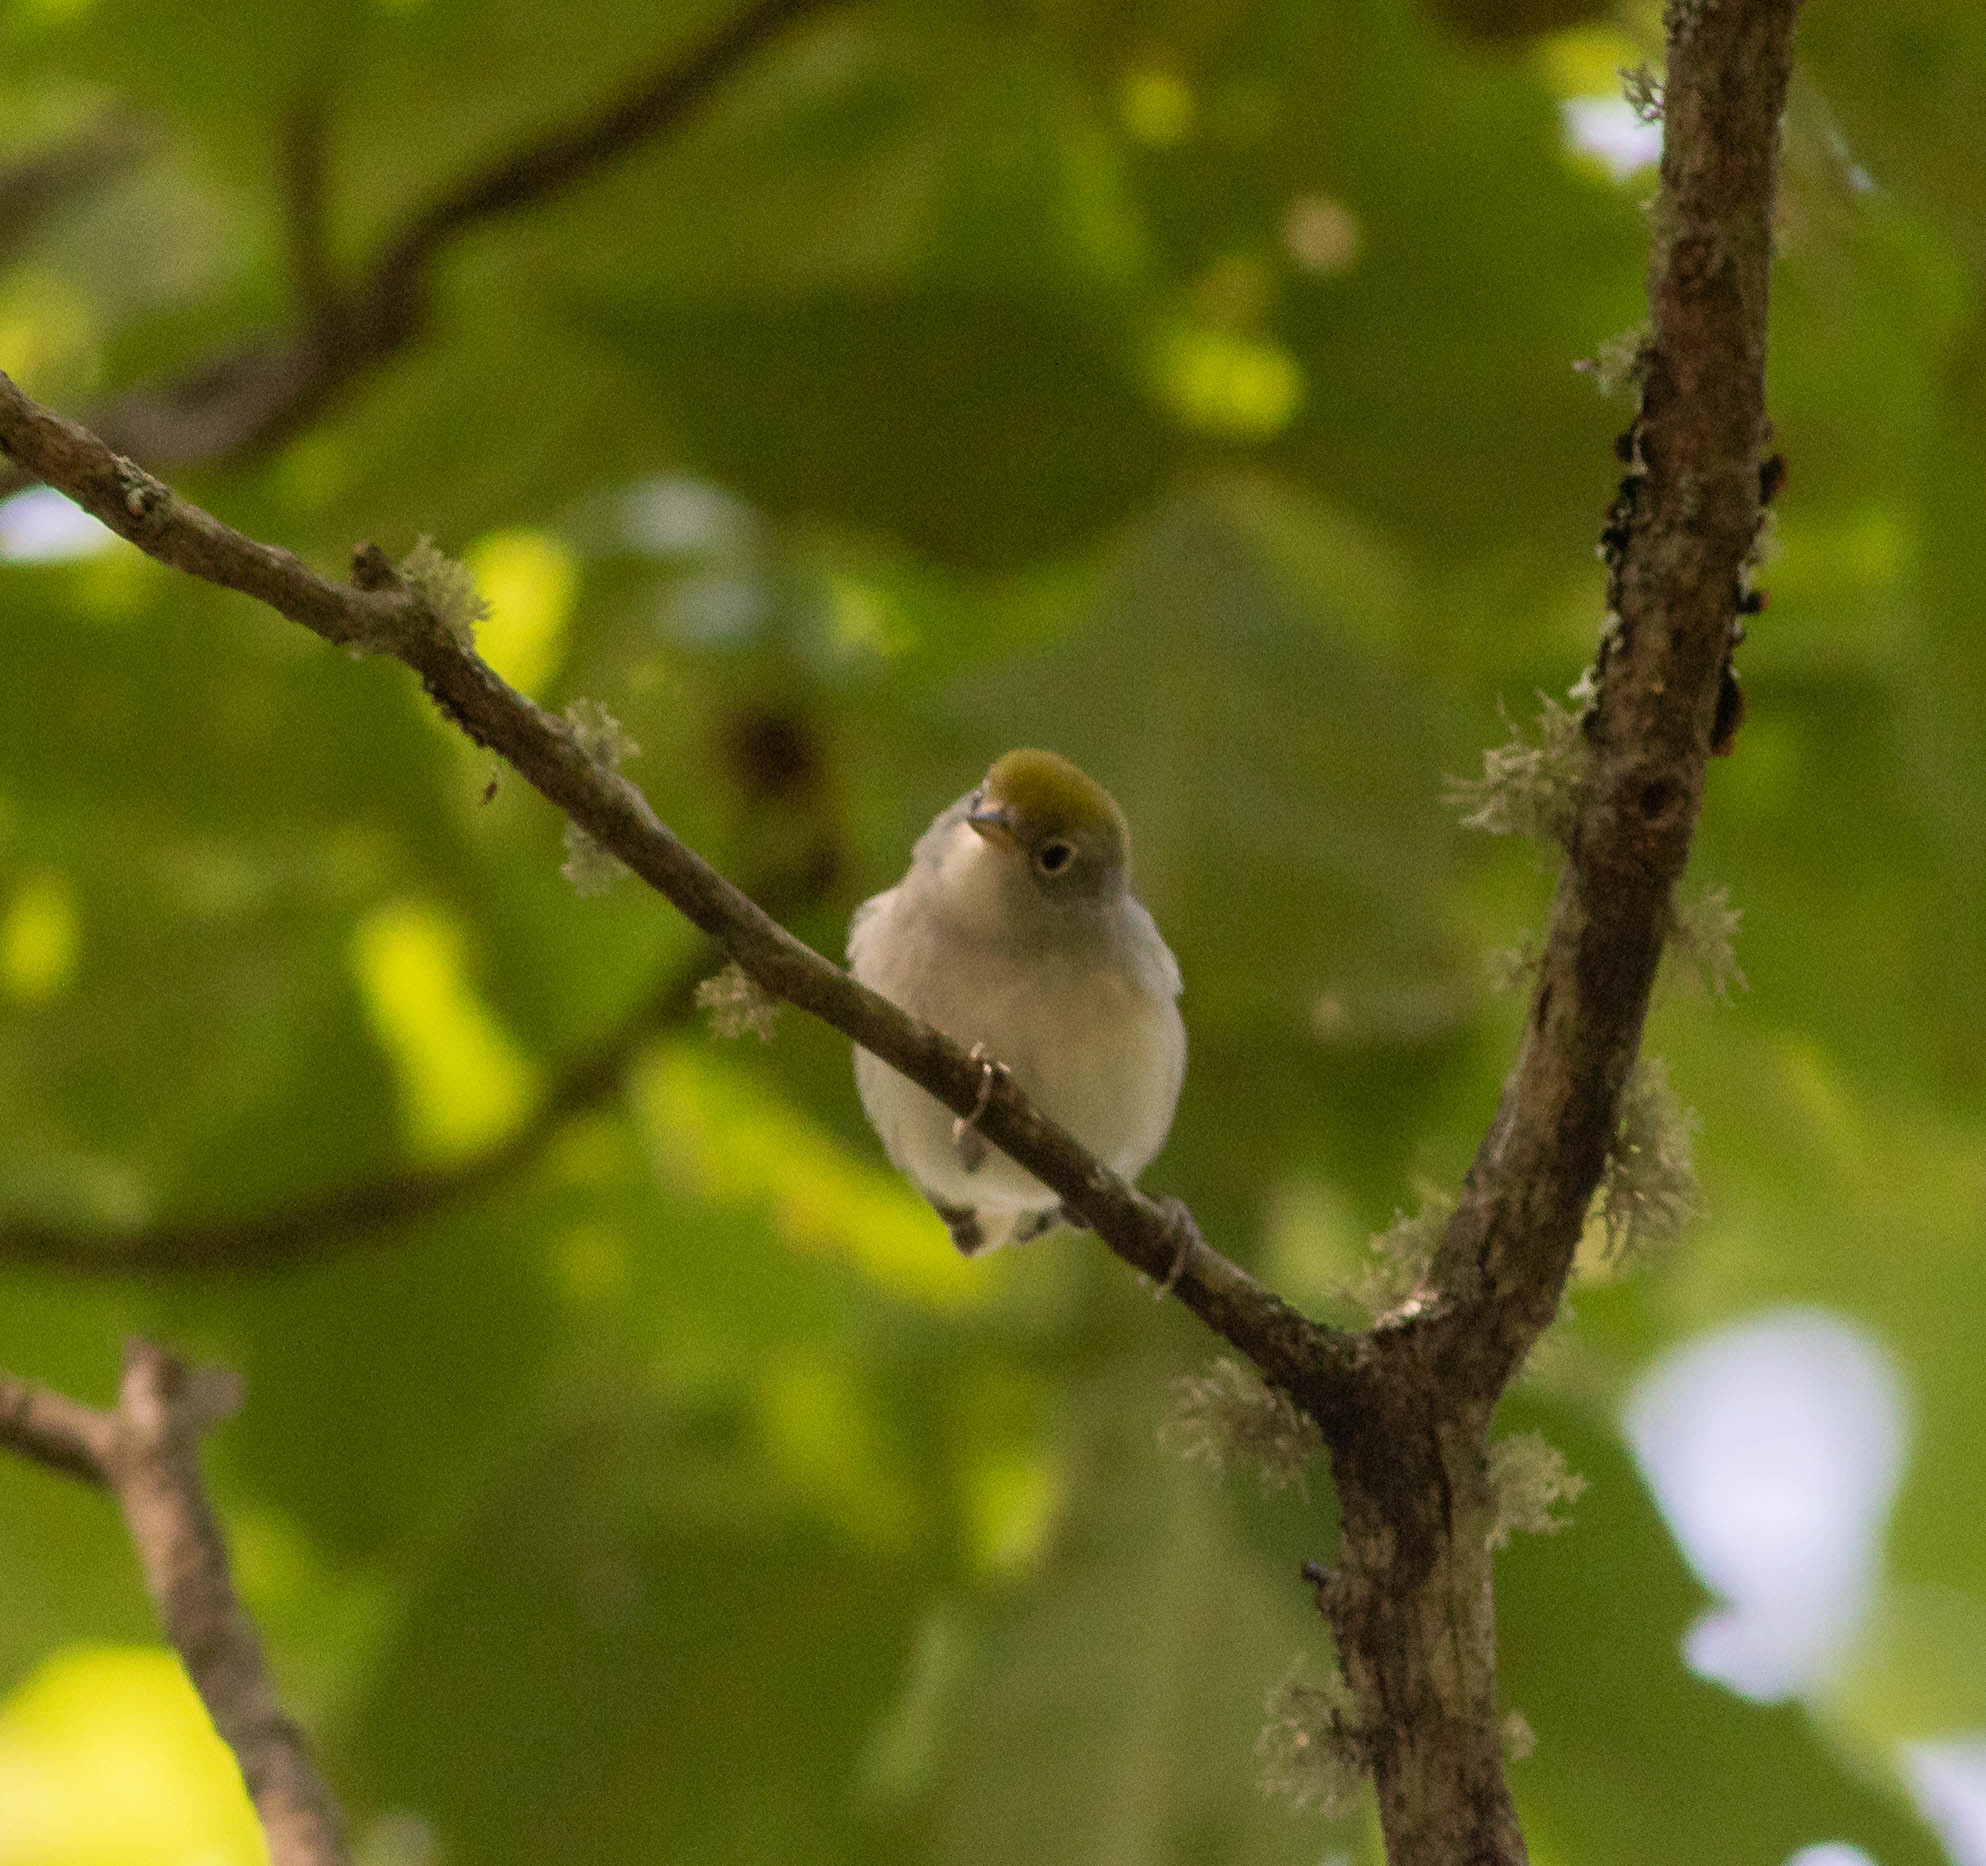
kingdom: Animalia
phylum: Chordata
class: Aves
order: Passeriformes
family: Parulidae
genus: Setophaga
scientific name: Setophaga pensylvanica
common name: Chestnut-sided warbler
